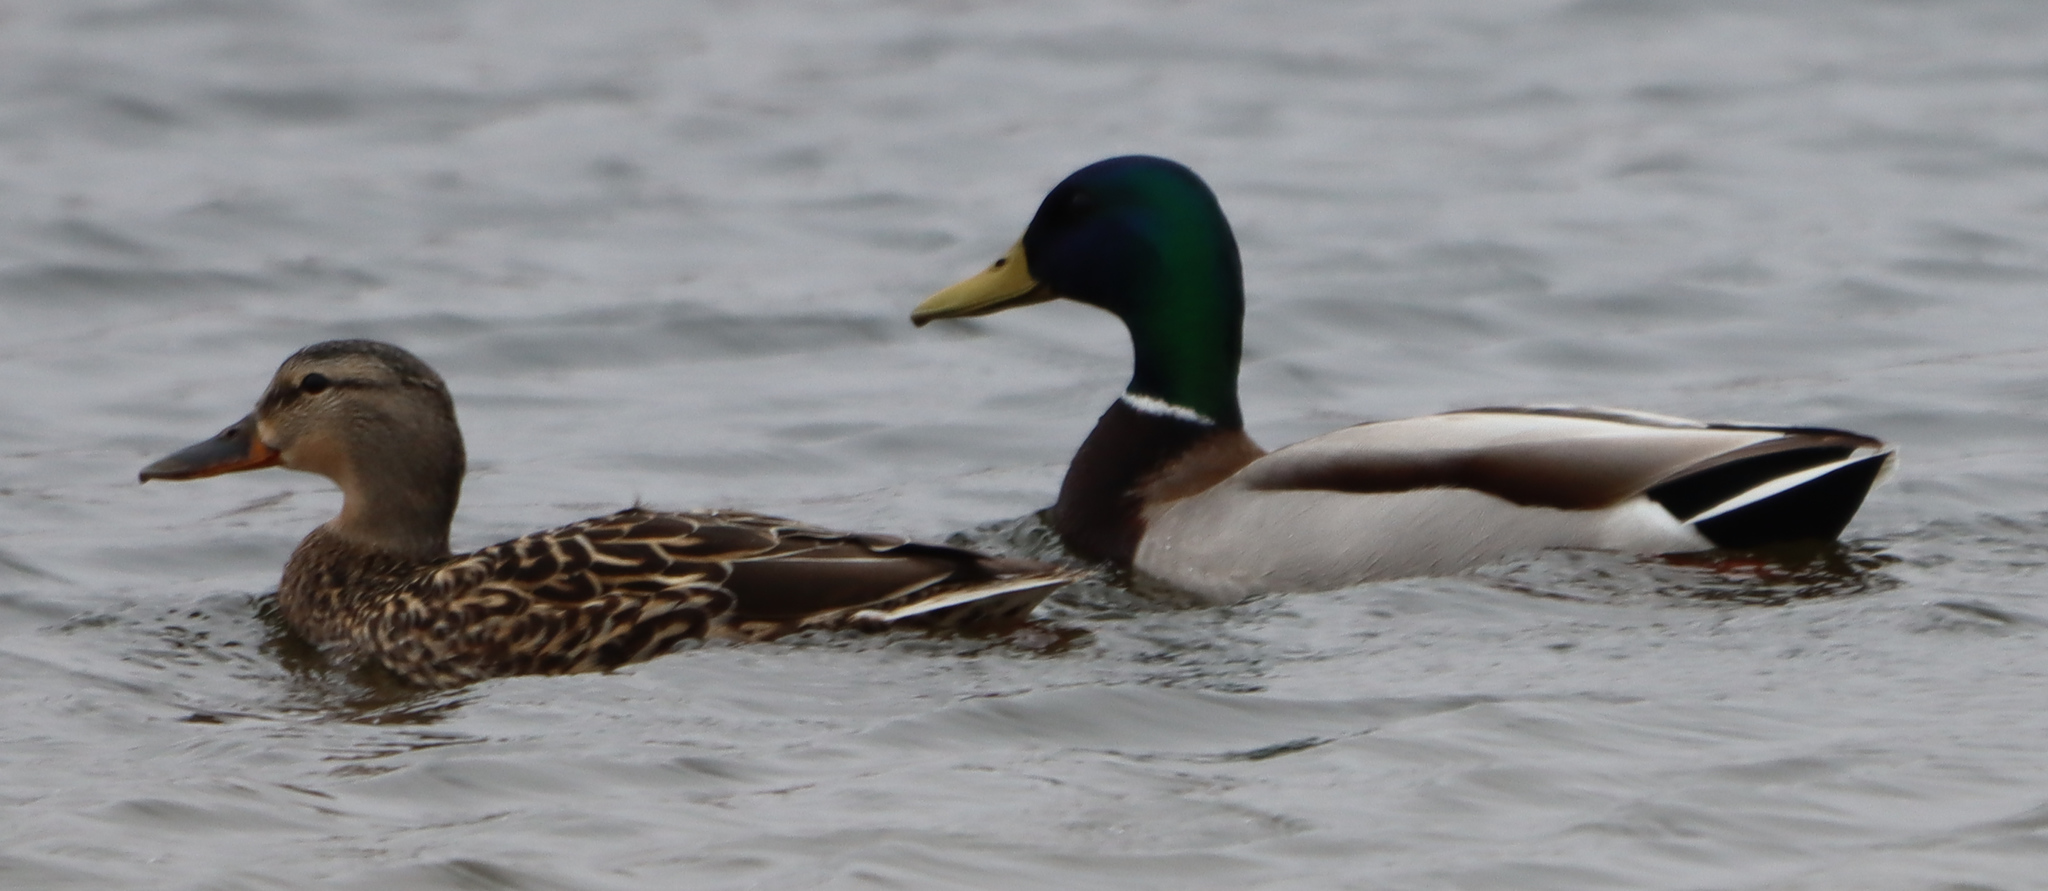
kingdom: Animalia
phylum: Chordata
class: Aves
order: Anseriformes
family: Anatidae
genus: Anas
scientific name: Anas platyrhynchos
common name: Mallard
